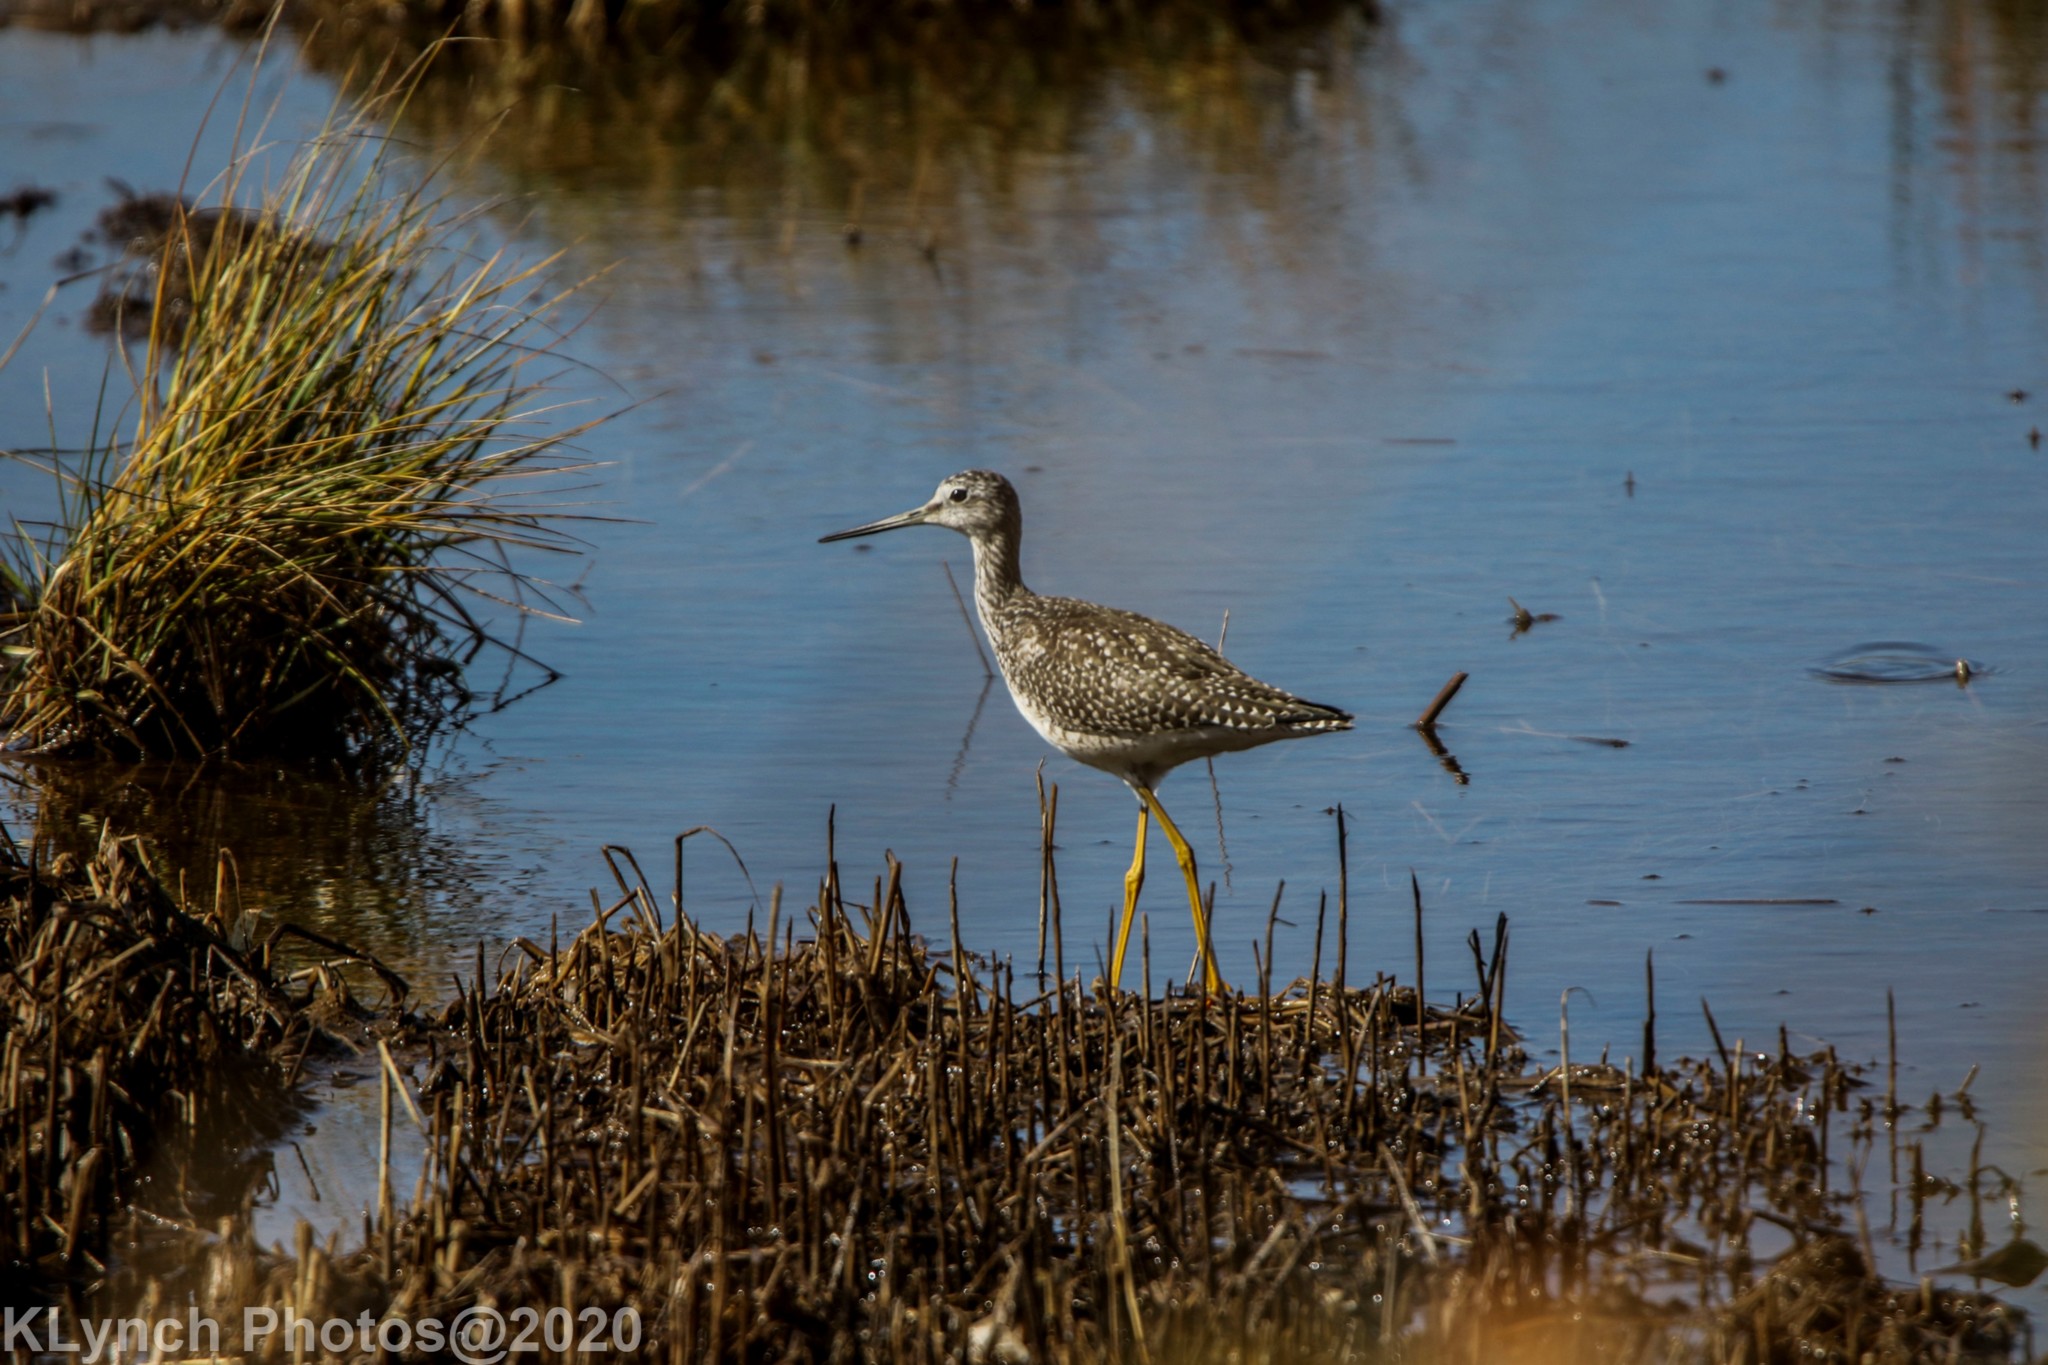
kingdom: Animalia
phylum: Chordata
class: Aves
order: Charadriiformes
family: Scolopacidae
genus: Tringa
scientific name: Tringa melanoleuca
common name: Greater yellowlegs
